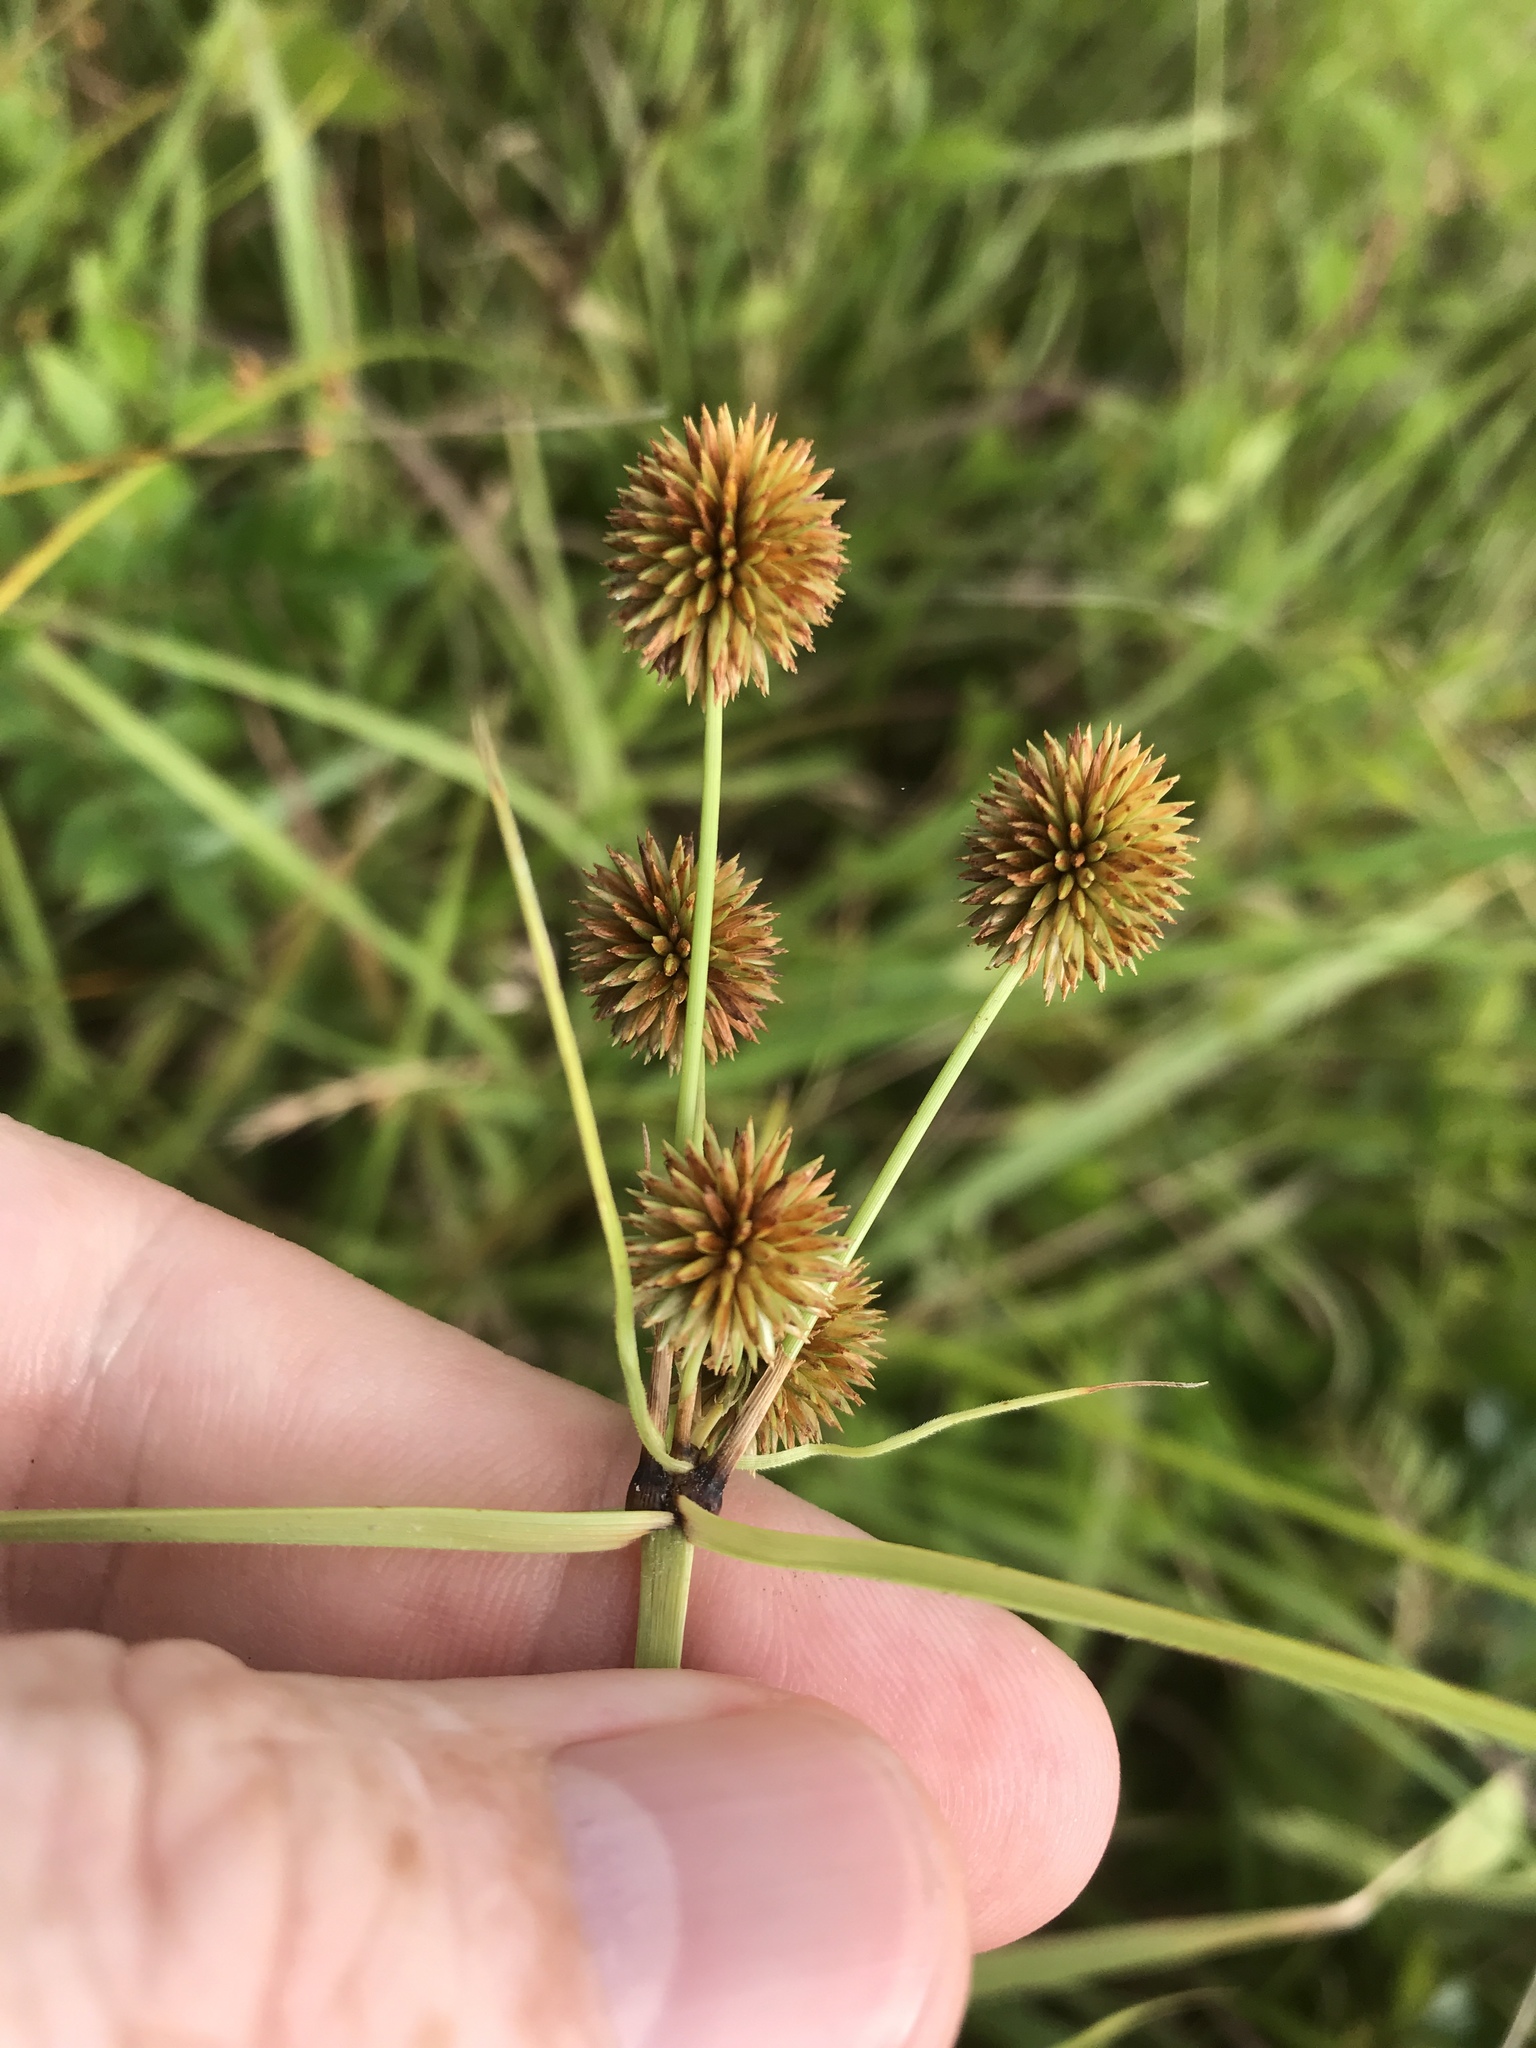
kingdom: Plantae
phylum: Tracheophyta
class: Liliopsida
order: Poales
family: Cyperaceae
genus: Cyperus
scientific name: Cyperus echinatus
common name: Teasel sedge
